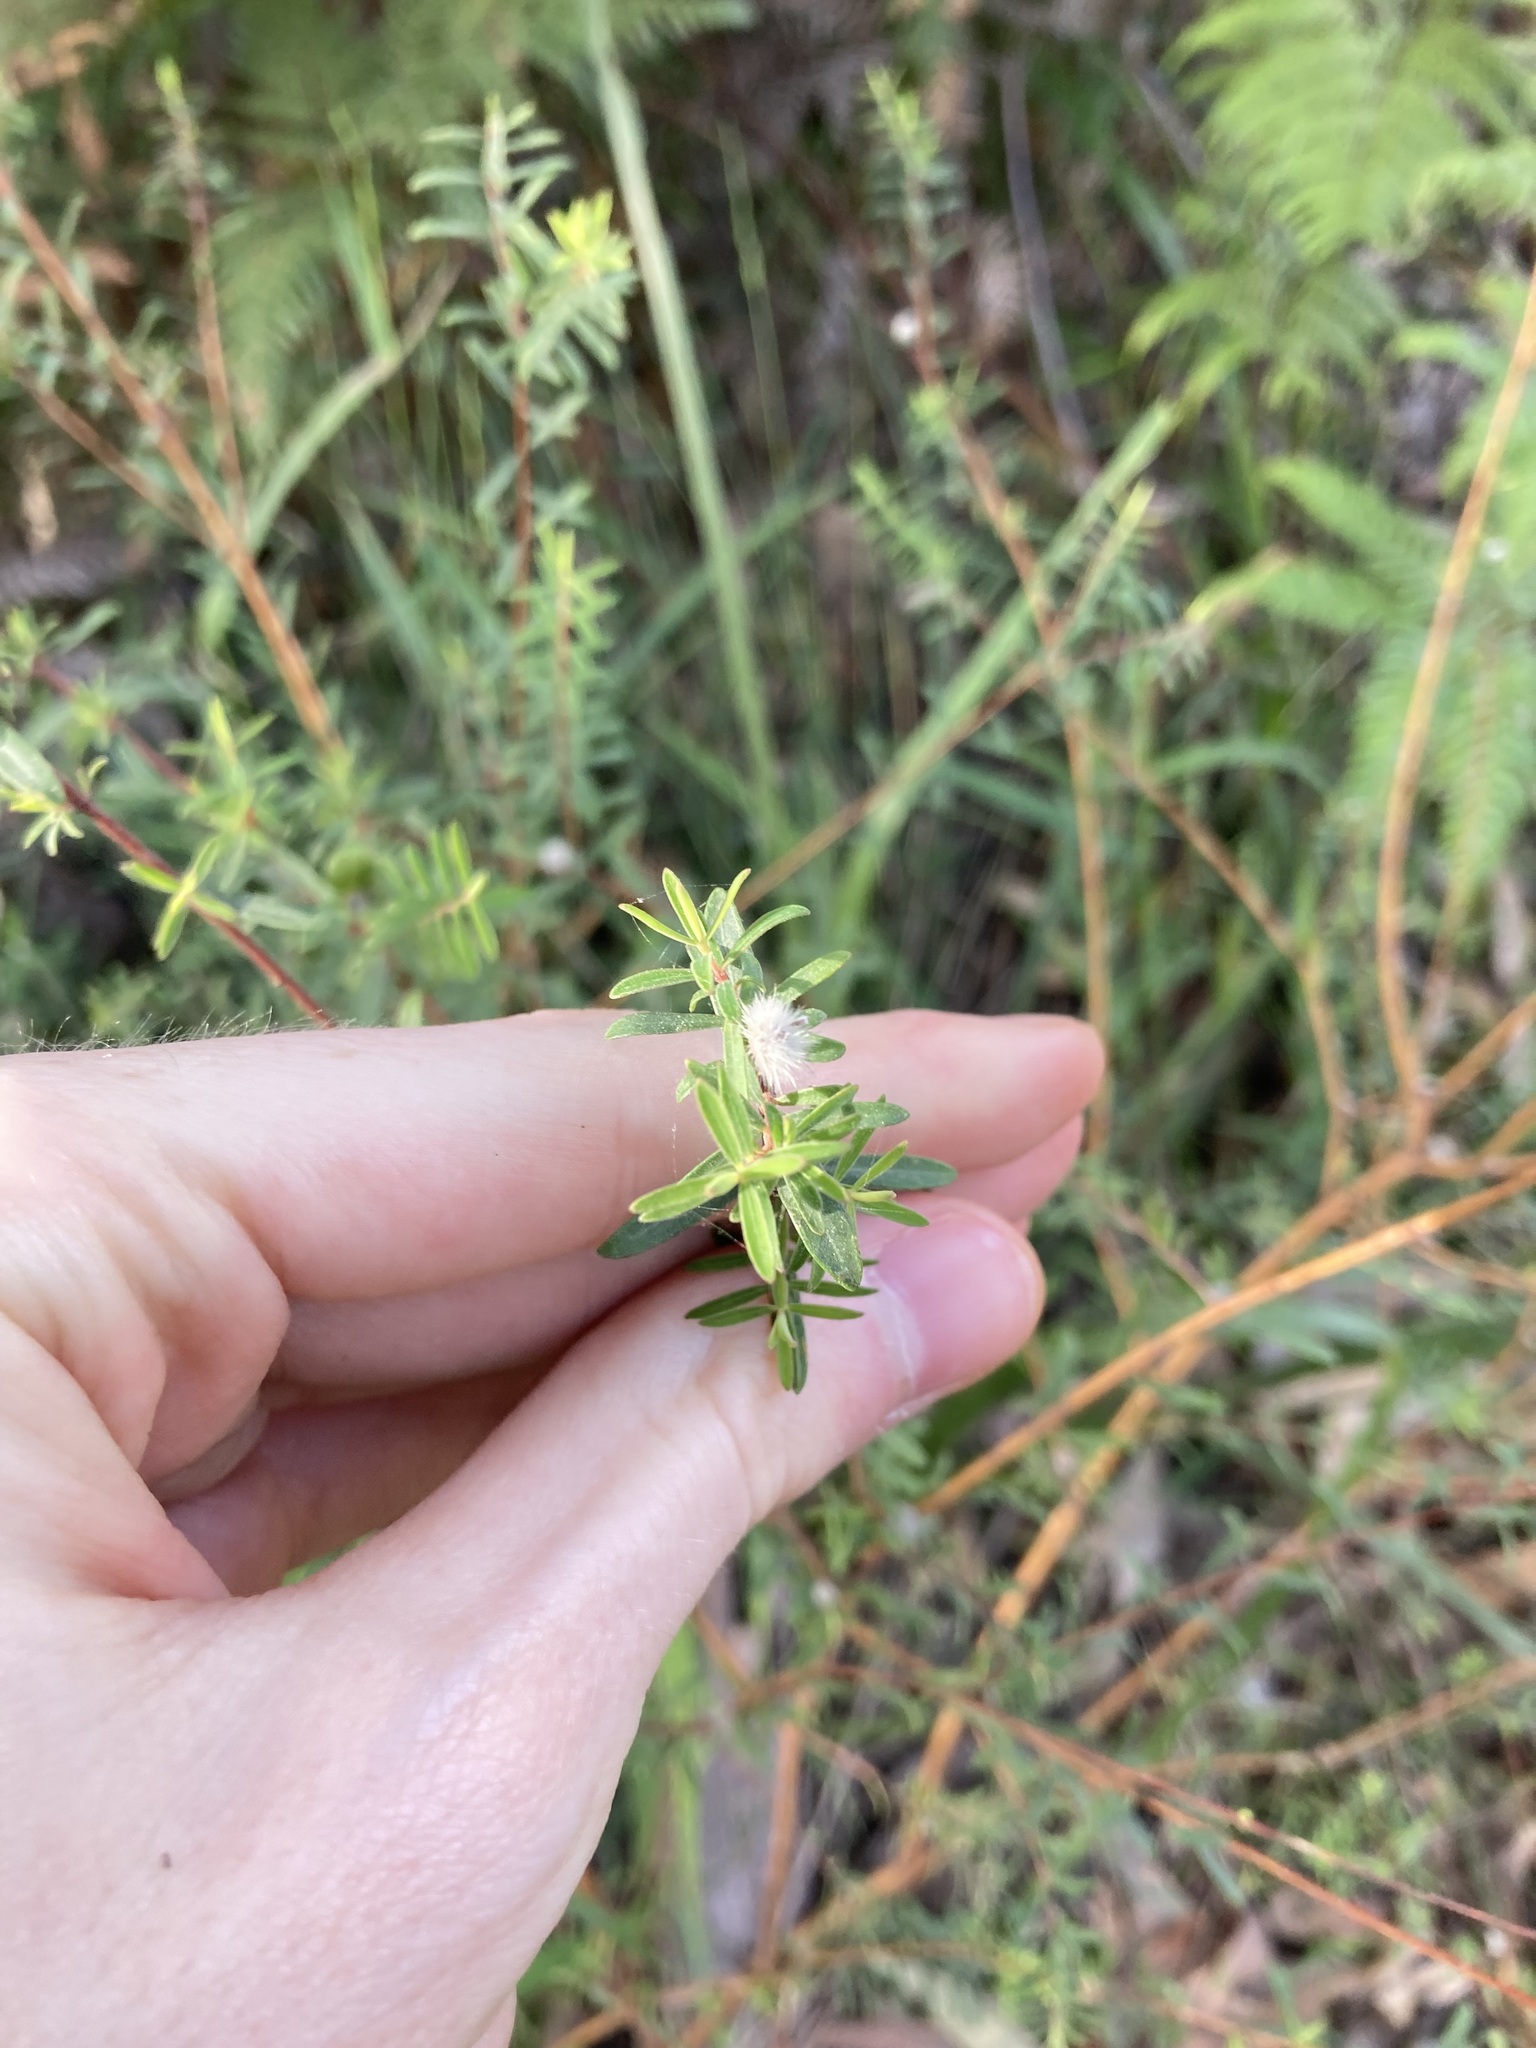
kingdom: Plantae
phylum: Tracheophyta
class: Magnoliopsida
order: Malvales
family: Thymelaeaceae
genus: Pimelea
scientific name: Pimelea linifolia
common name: Queen-of-the-bush
